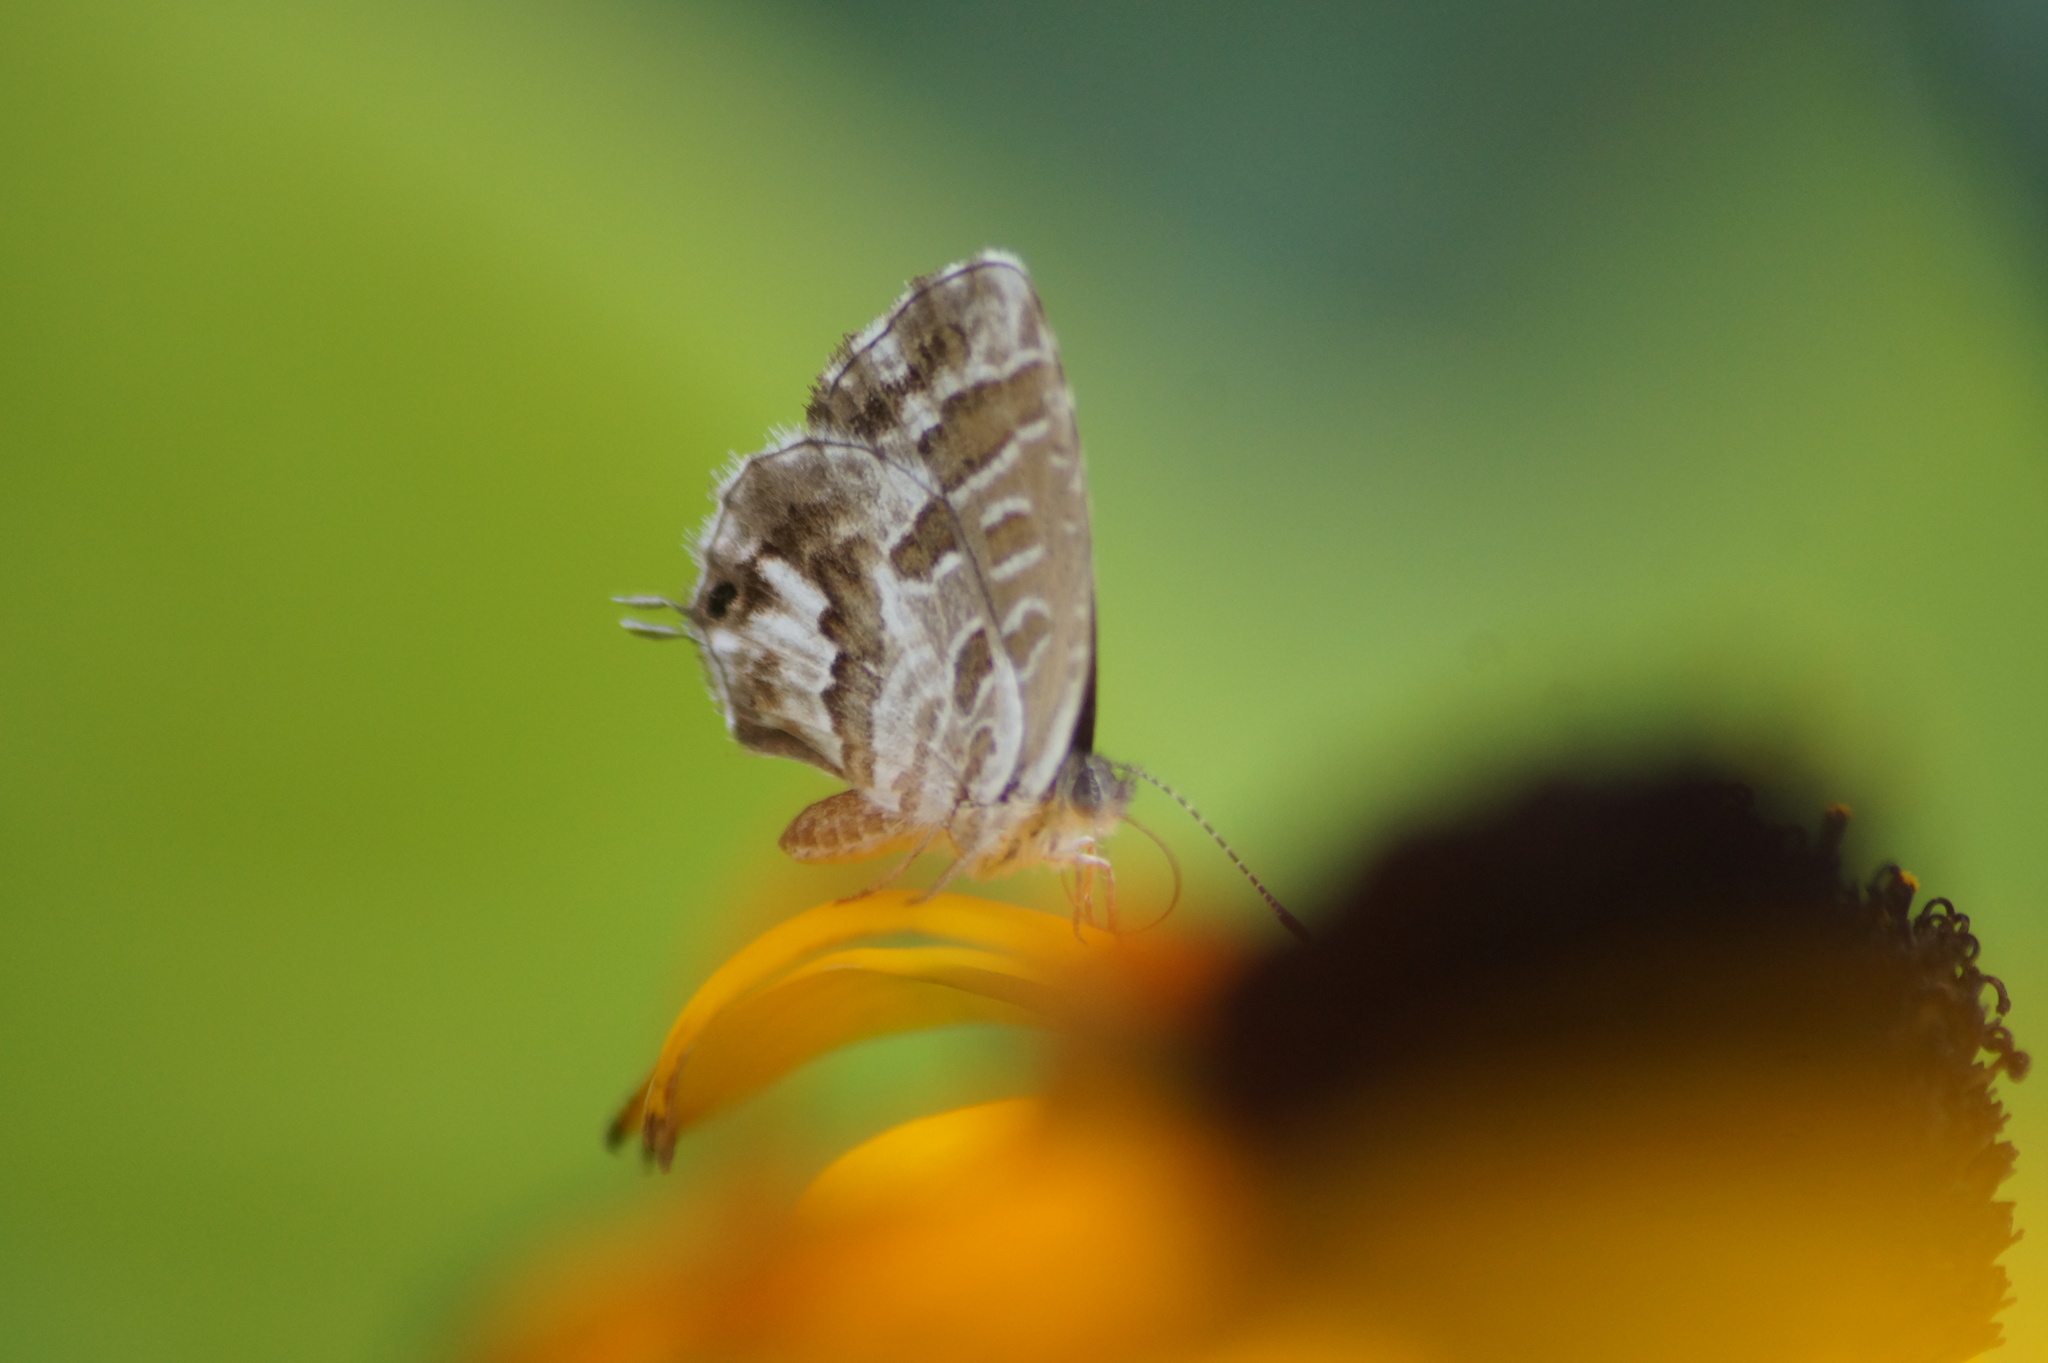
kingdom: Animalia
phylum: Arthropoda
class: Insecta
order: Lepidoptera
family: Lycaenidae
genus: Cacyreus
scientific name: Cacyreus marshalli
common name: Geranium bronze
